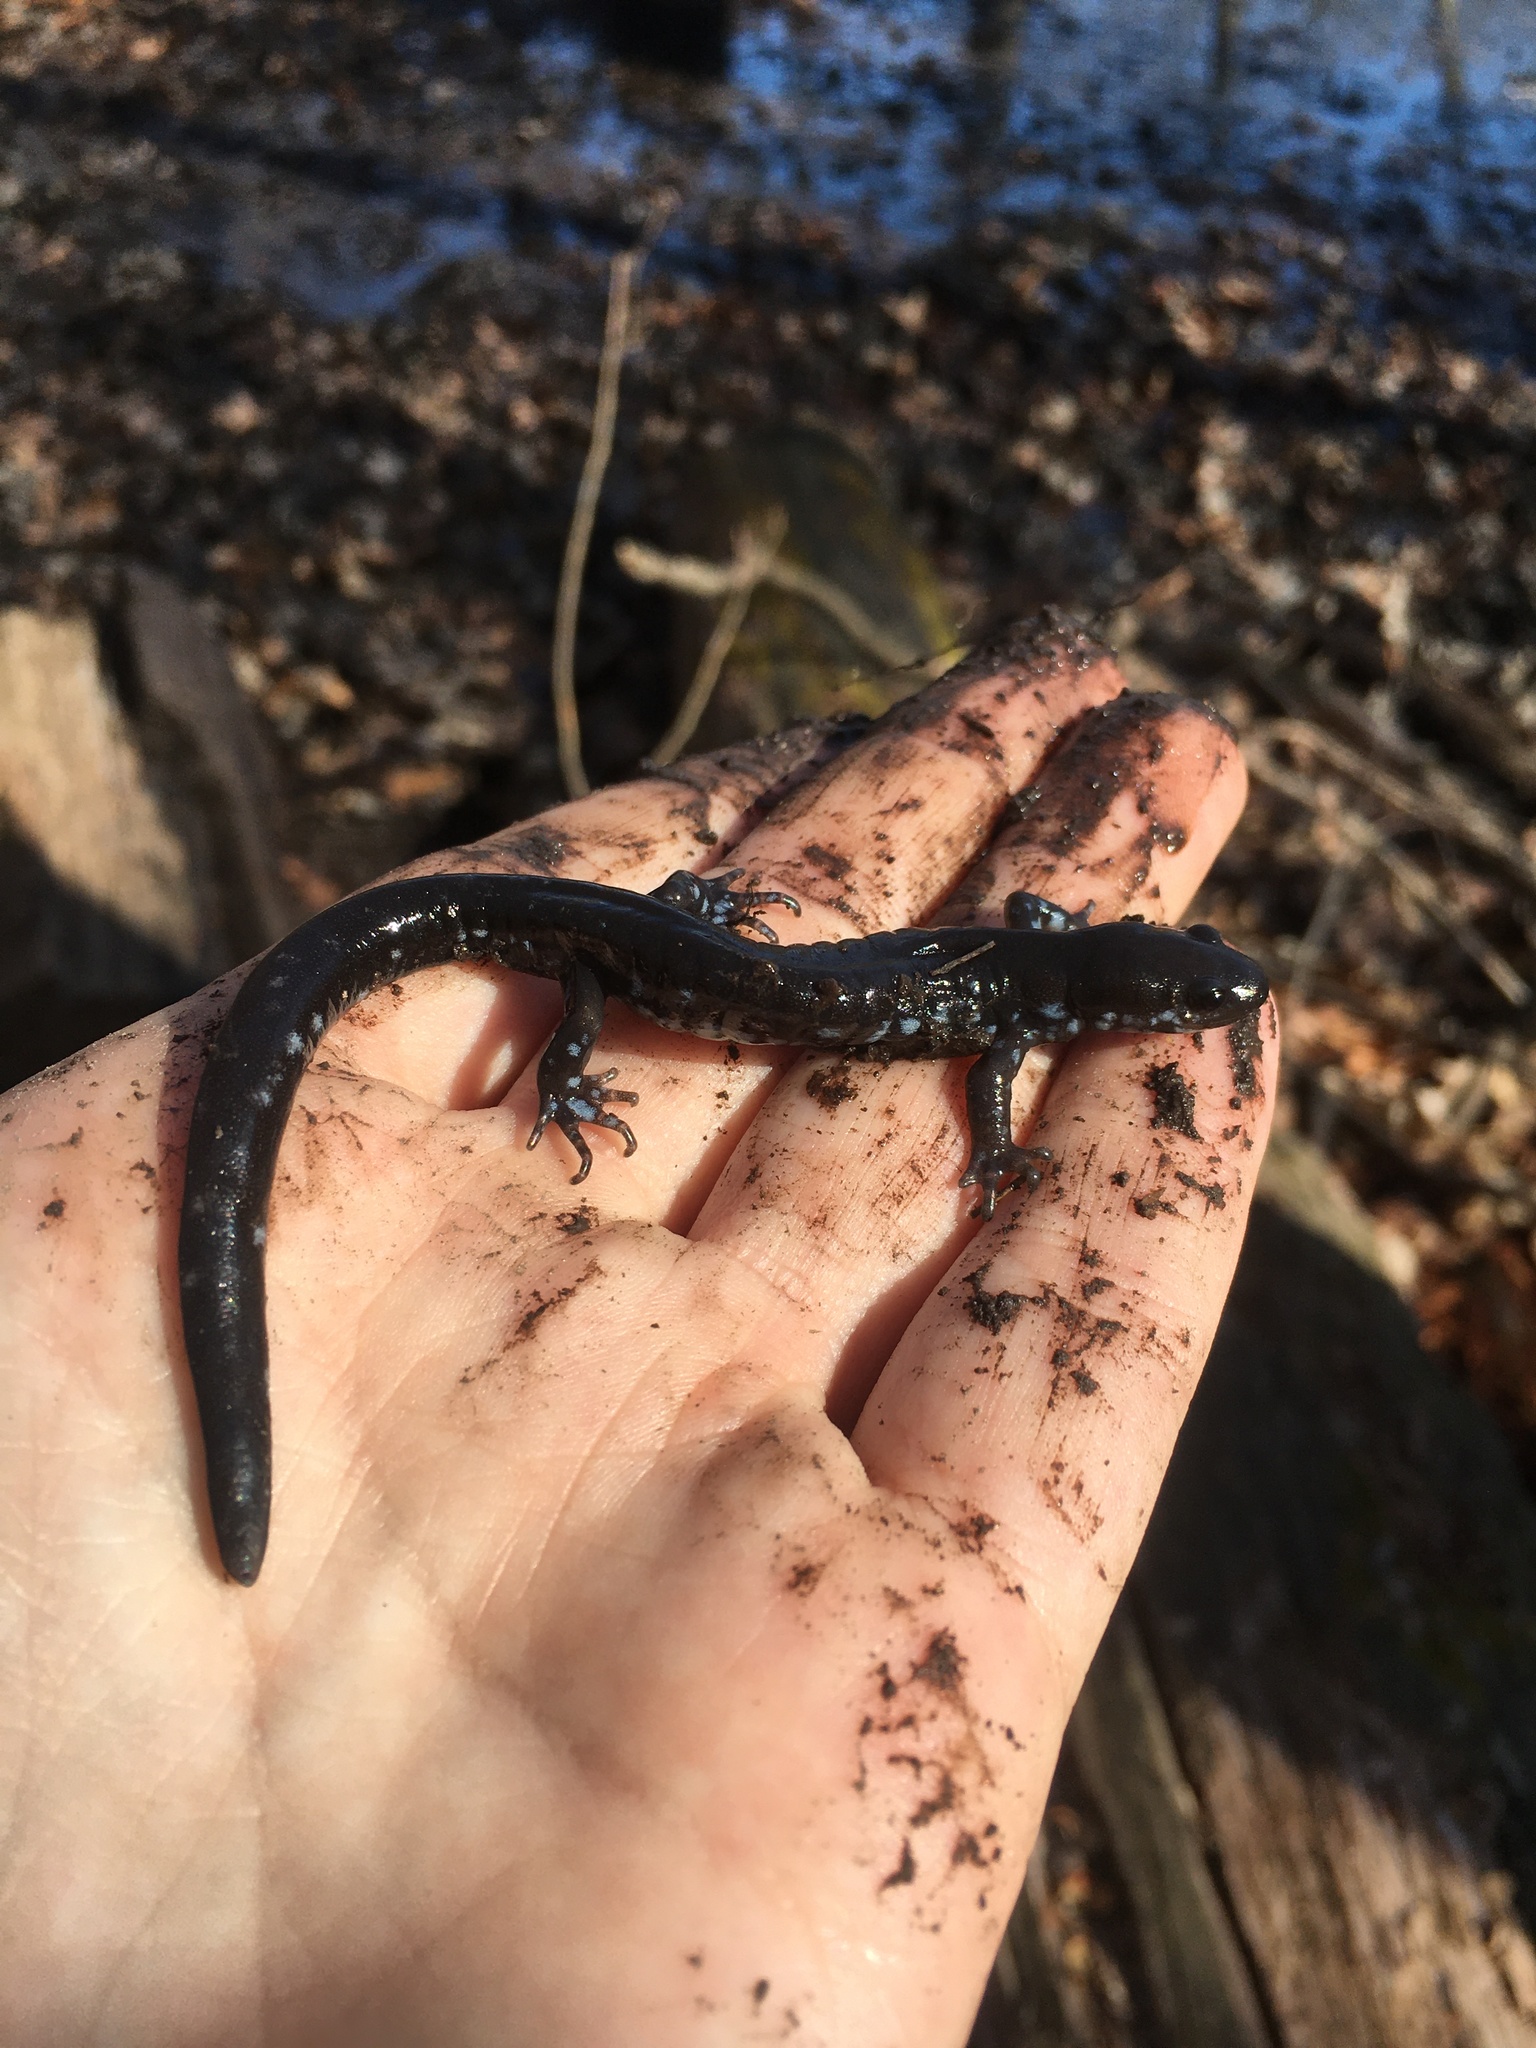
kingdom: Animalia
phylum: Chordata
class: Amphibia
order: Caudata
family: Ambystomatidae
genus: Ambystoma
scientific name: Ambystoma laterale
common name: Blue-spotted salamander
